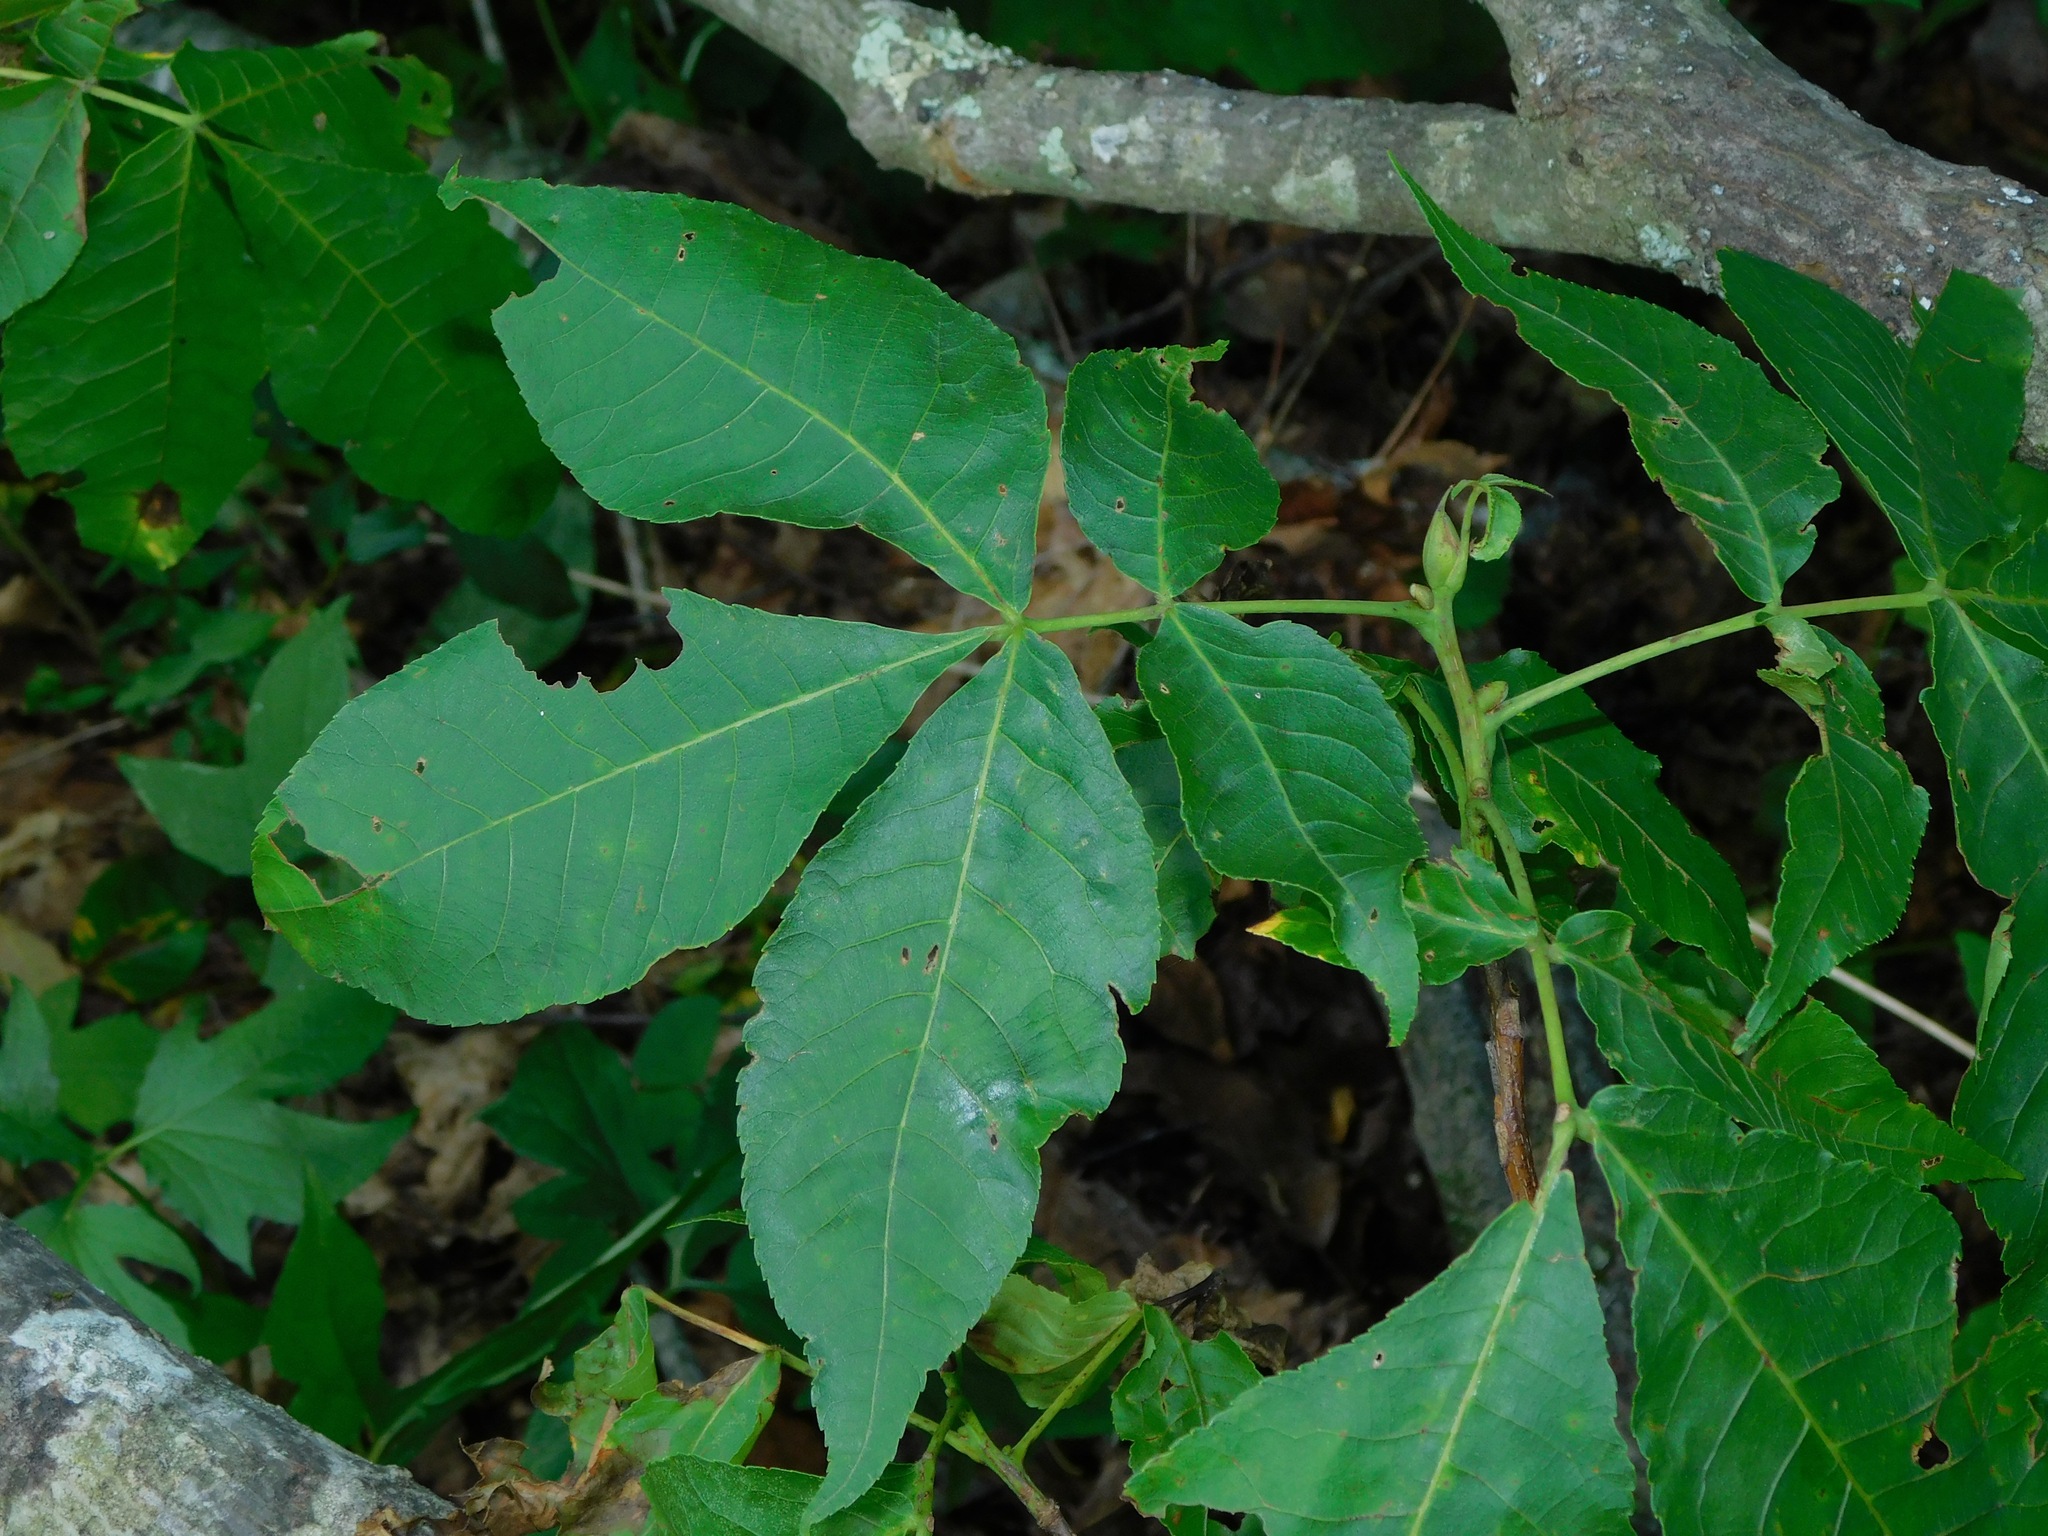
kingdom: Plantae
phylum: Tracheophyta
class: Magnoliopsida
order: Fagales
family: Juglandaceae
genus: Carya
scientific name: Carya glabra
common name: Pignut hickory
